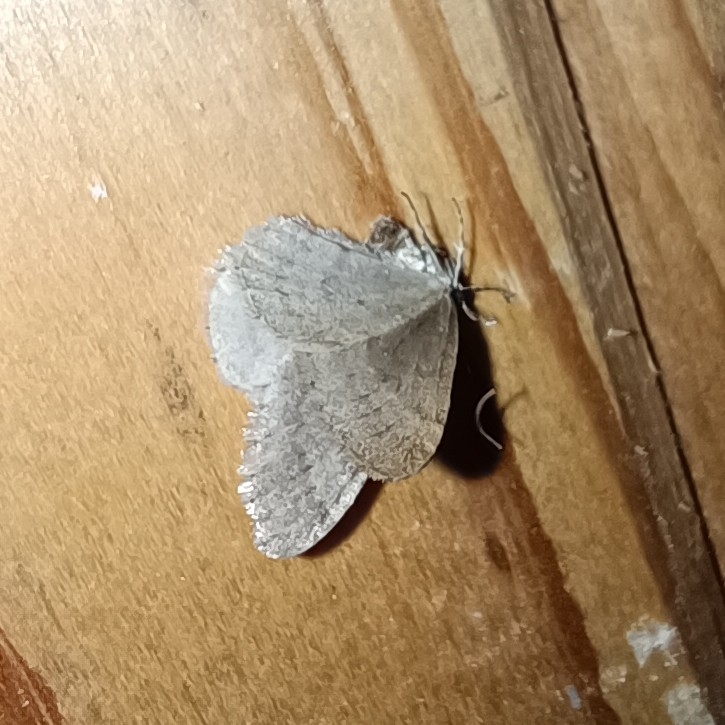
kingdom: Animalia
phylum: Arthropoda
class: Insecta
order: Lepidoptera
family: Geometridae
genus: Operophtera
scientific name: Operophtera brumata
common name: Winter moth
